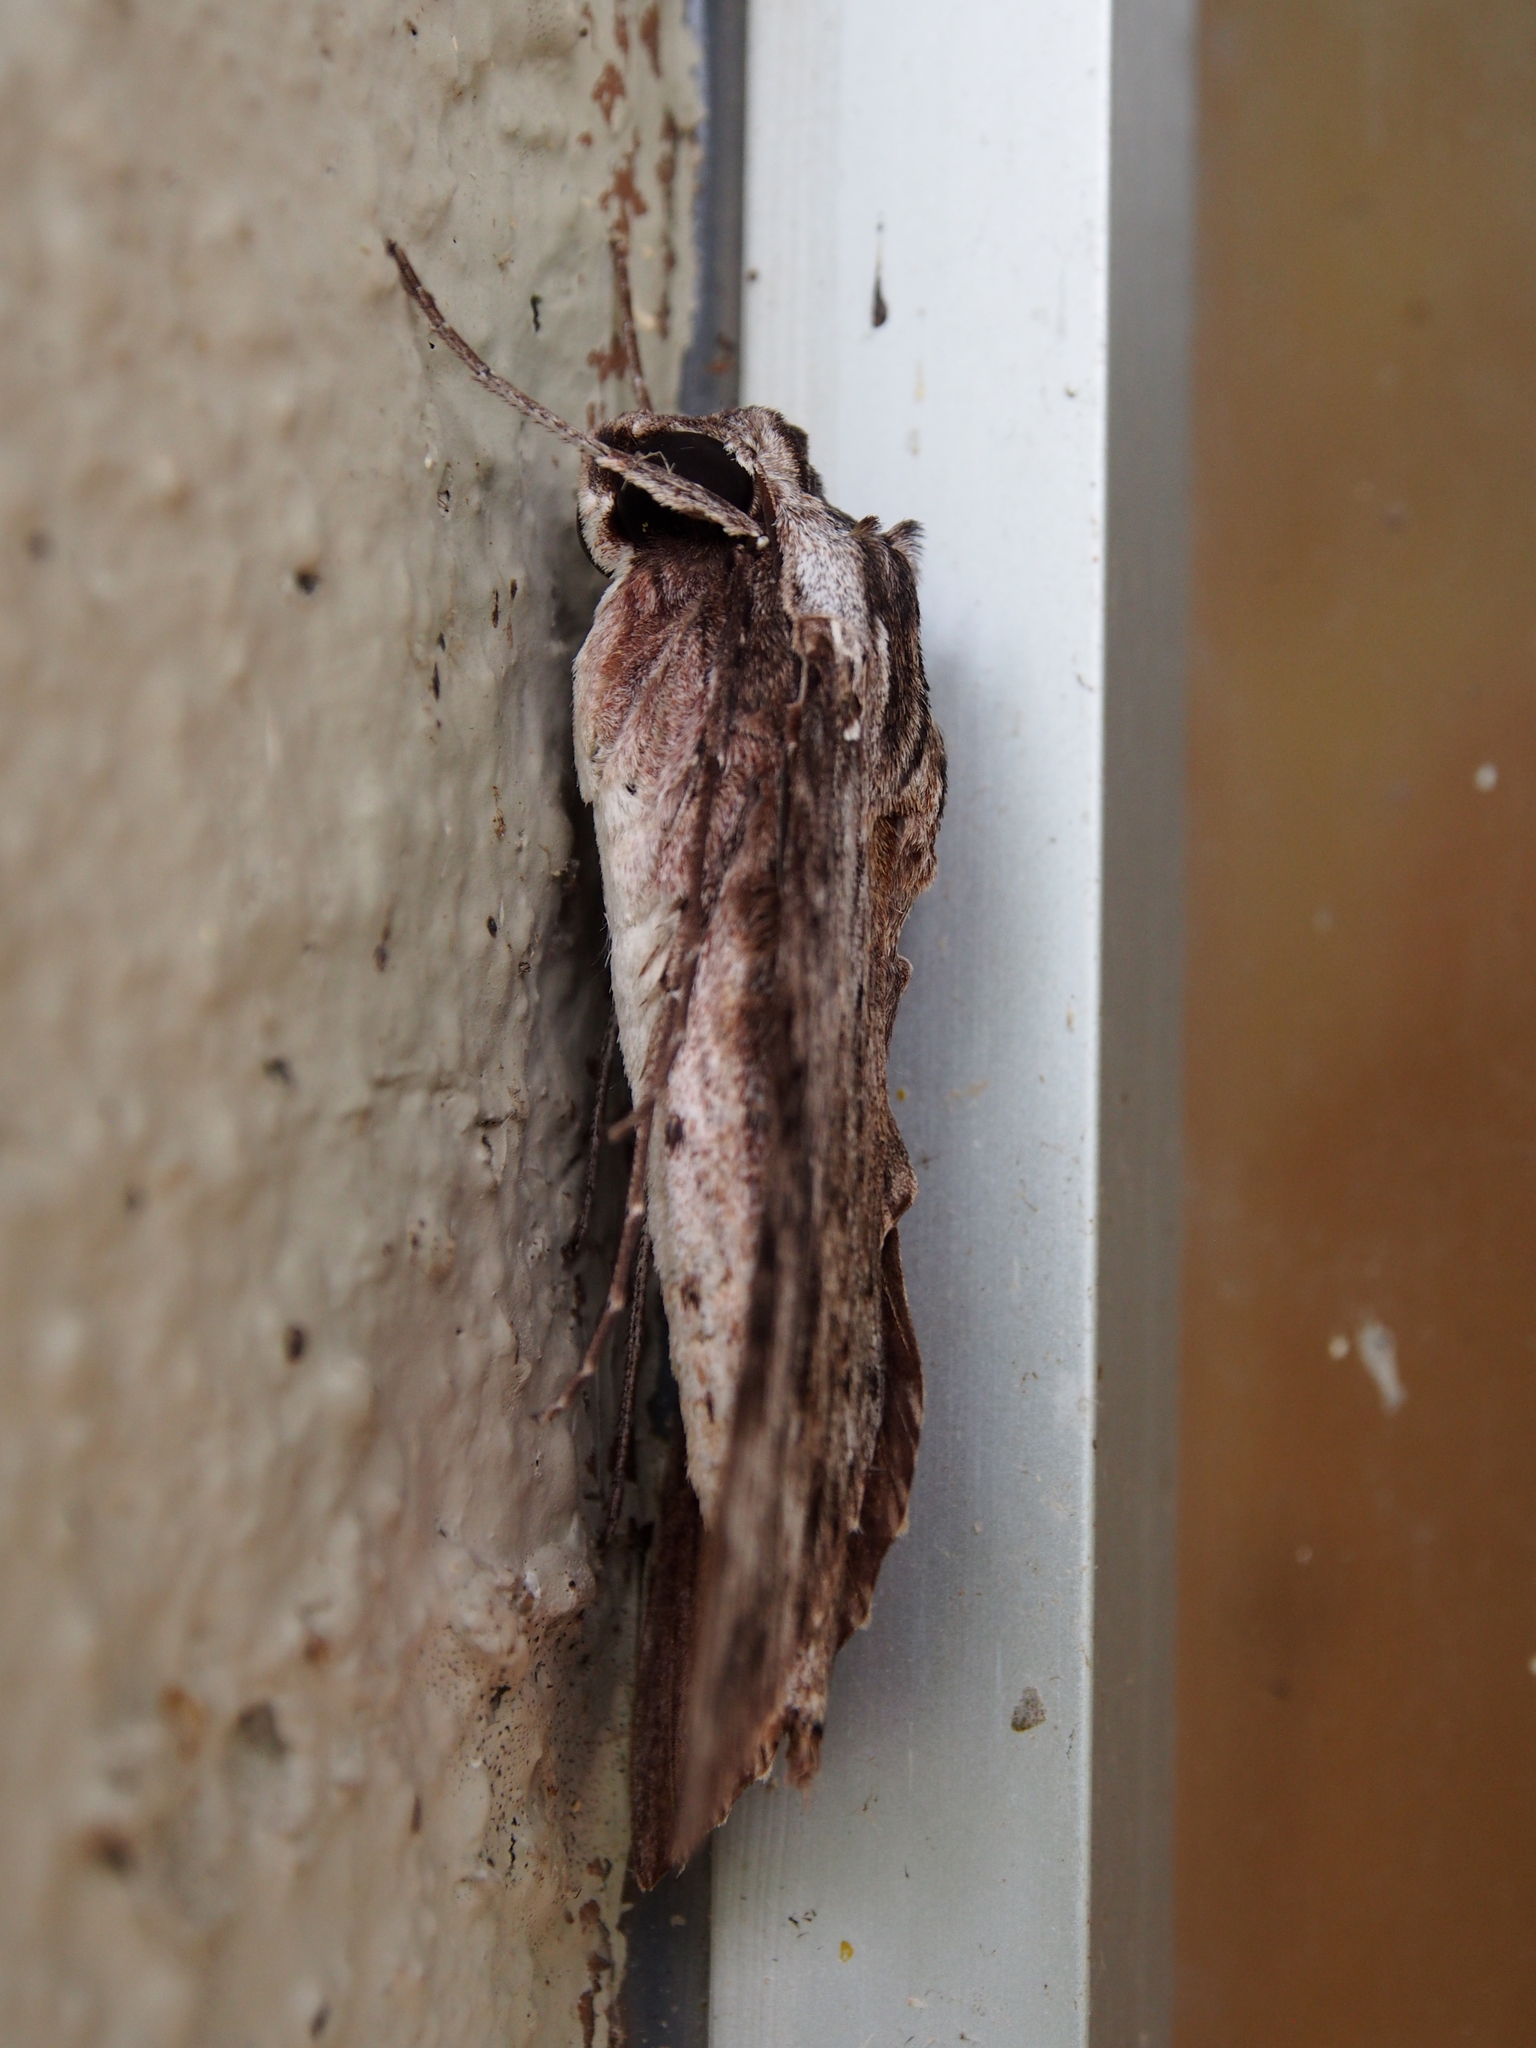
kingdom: Animalia
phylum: Arthropoda
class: Insecta
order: Lepidoptera
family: Sphingidae
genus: Erinnyis
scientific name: Erinnyis obscura
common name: Obscure sphinx
